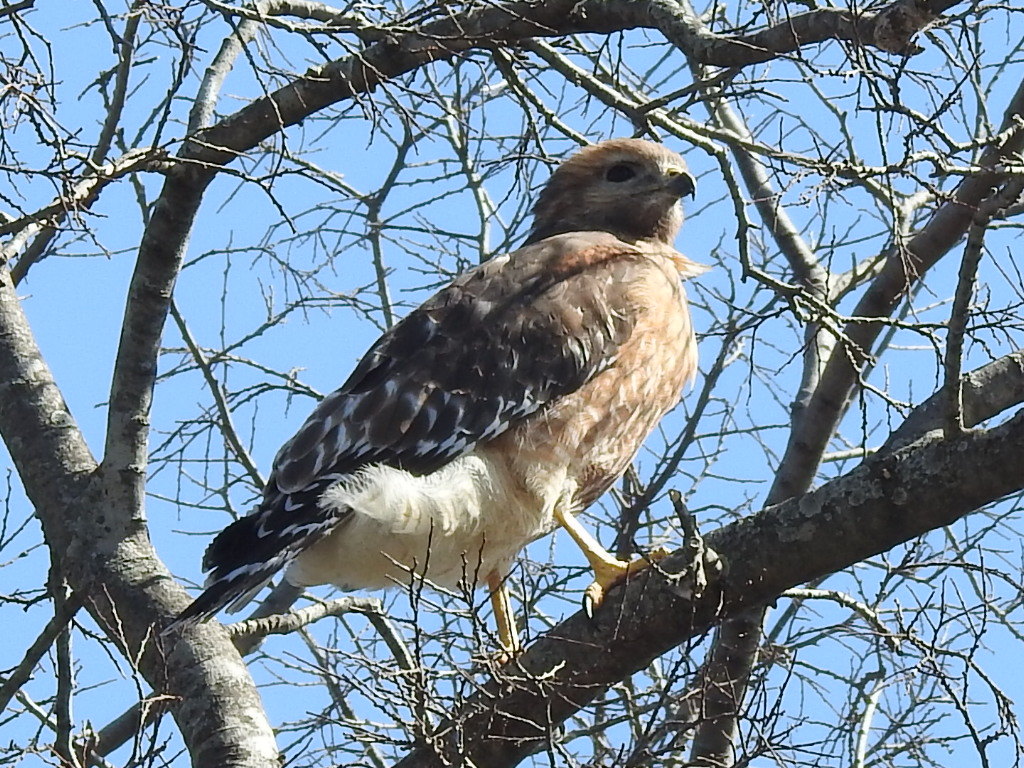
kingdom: Animalia
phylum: Chordata
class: Aves
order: Accipitriformes
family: Accipitridae
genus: Buteo
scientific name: Buteo lineatus
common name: Red-shouldered hawk
